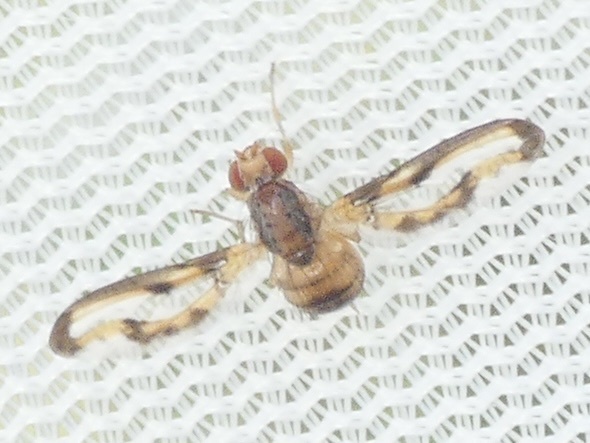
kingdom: Animalia
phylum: Arthropoda
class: Insecta
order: Diptera
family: Pallopteridae
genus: Toxonevra
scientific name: Toxonevra muliebris
